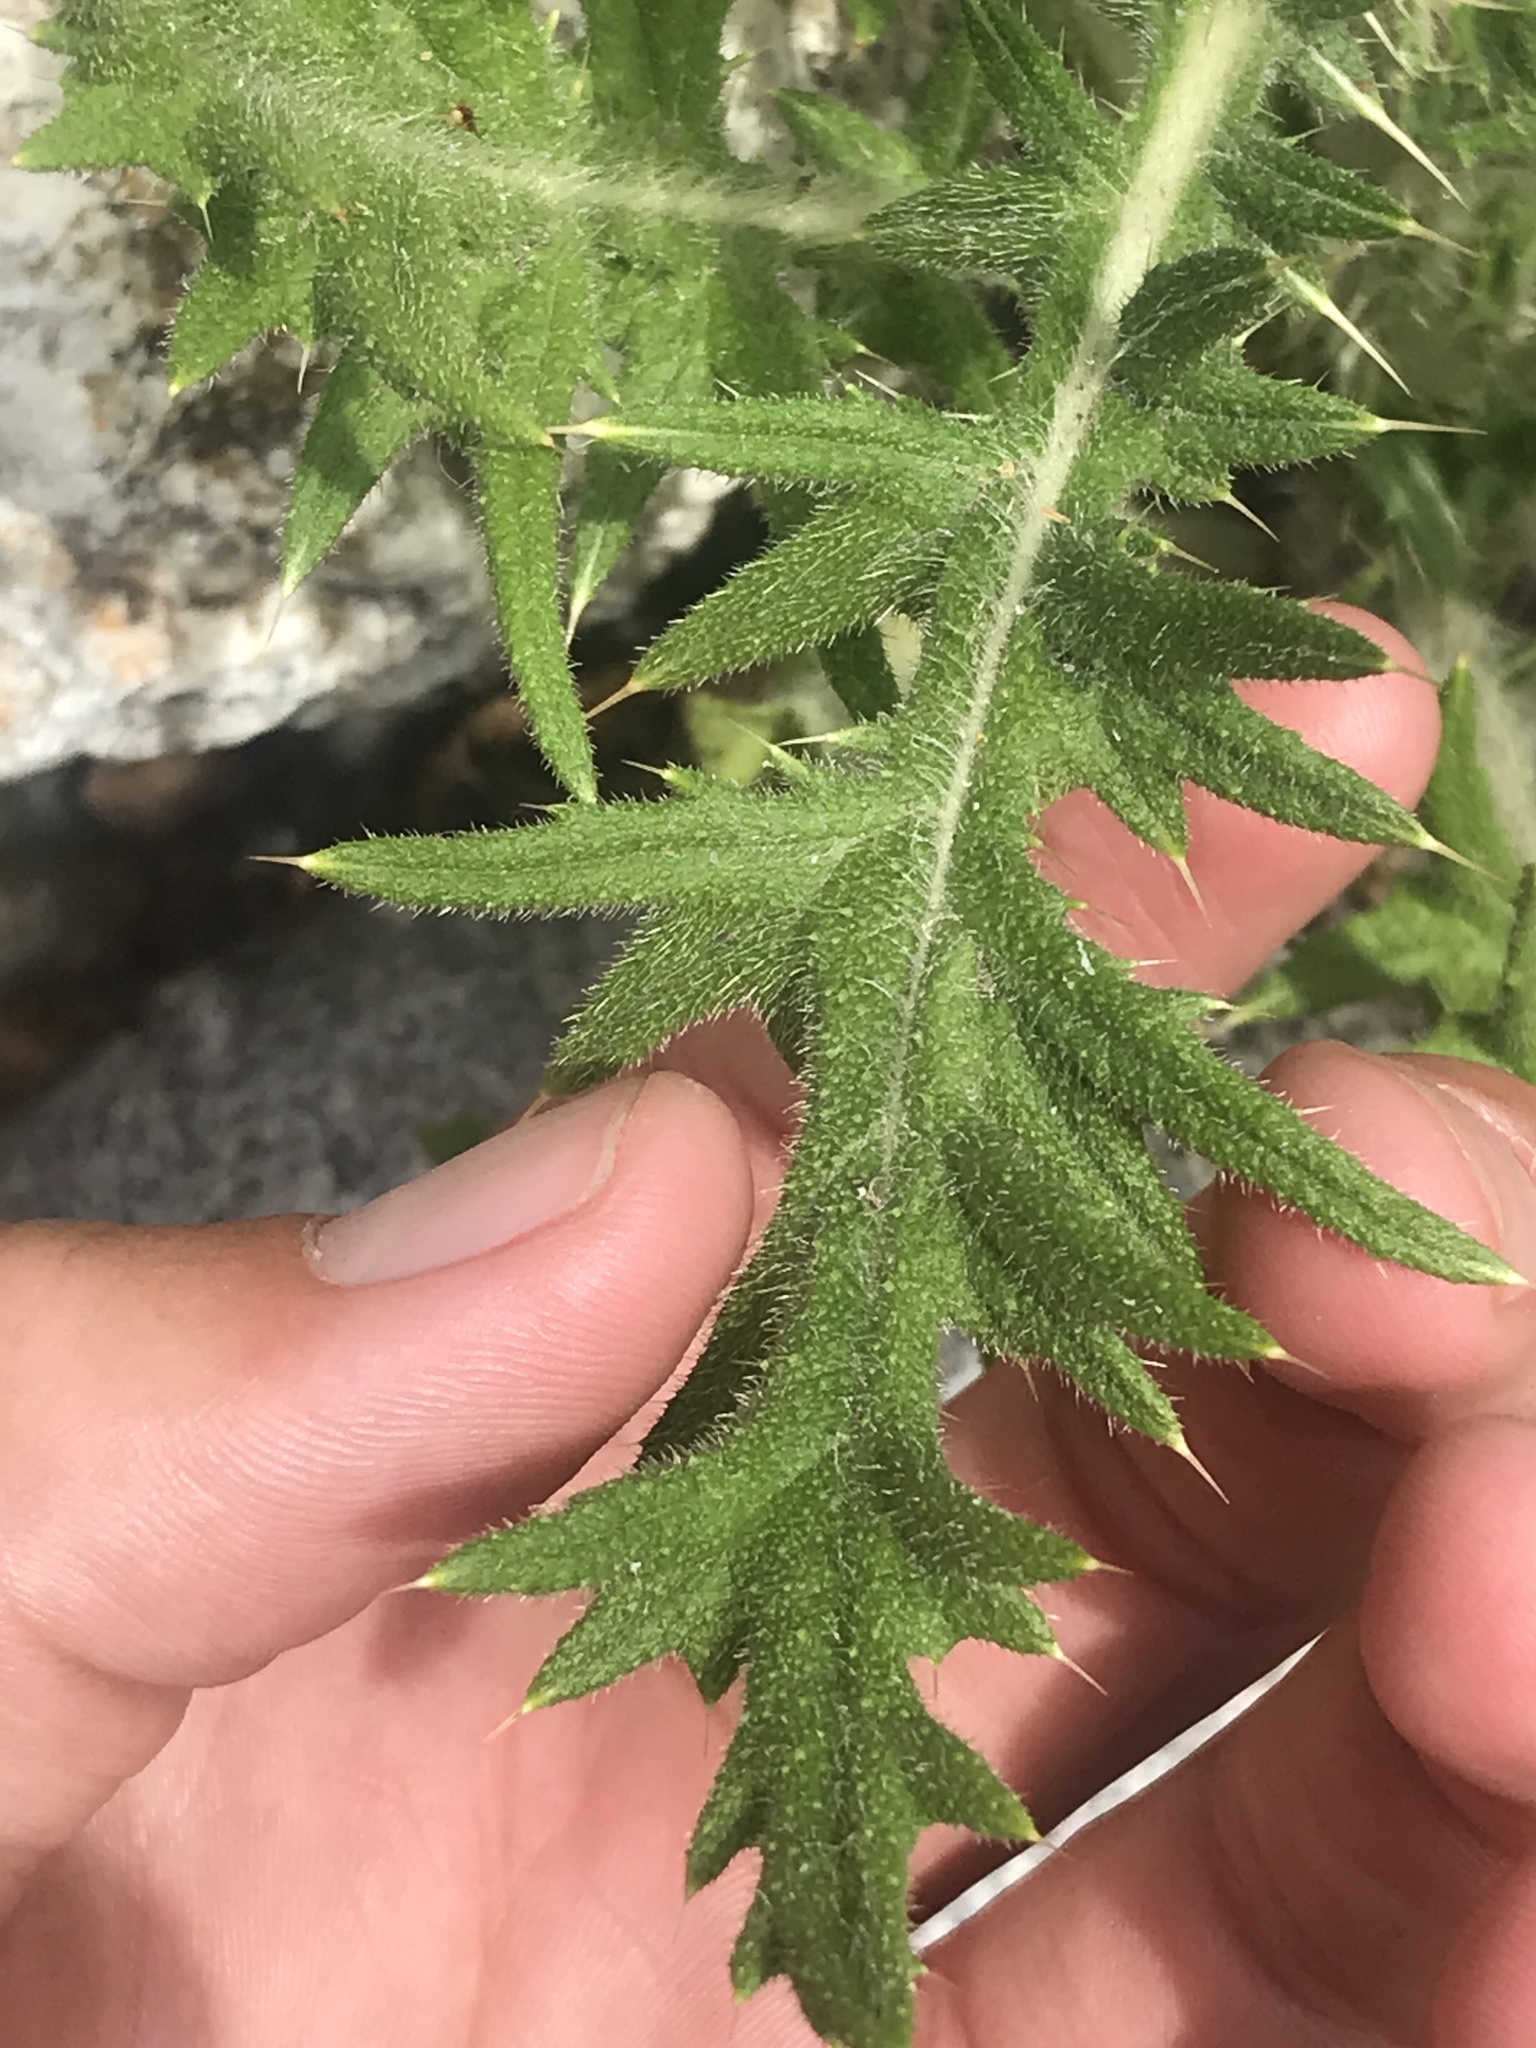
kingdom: Plantae
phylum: Tracheophyta
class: Magnoliopsida
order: Asterales
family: Asteraceae
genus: Cirsium
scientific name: Cirsium vulgare
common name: Bull thistle
